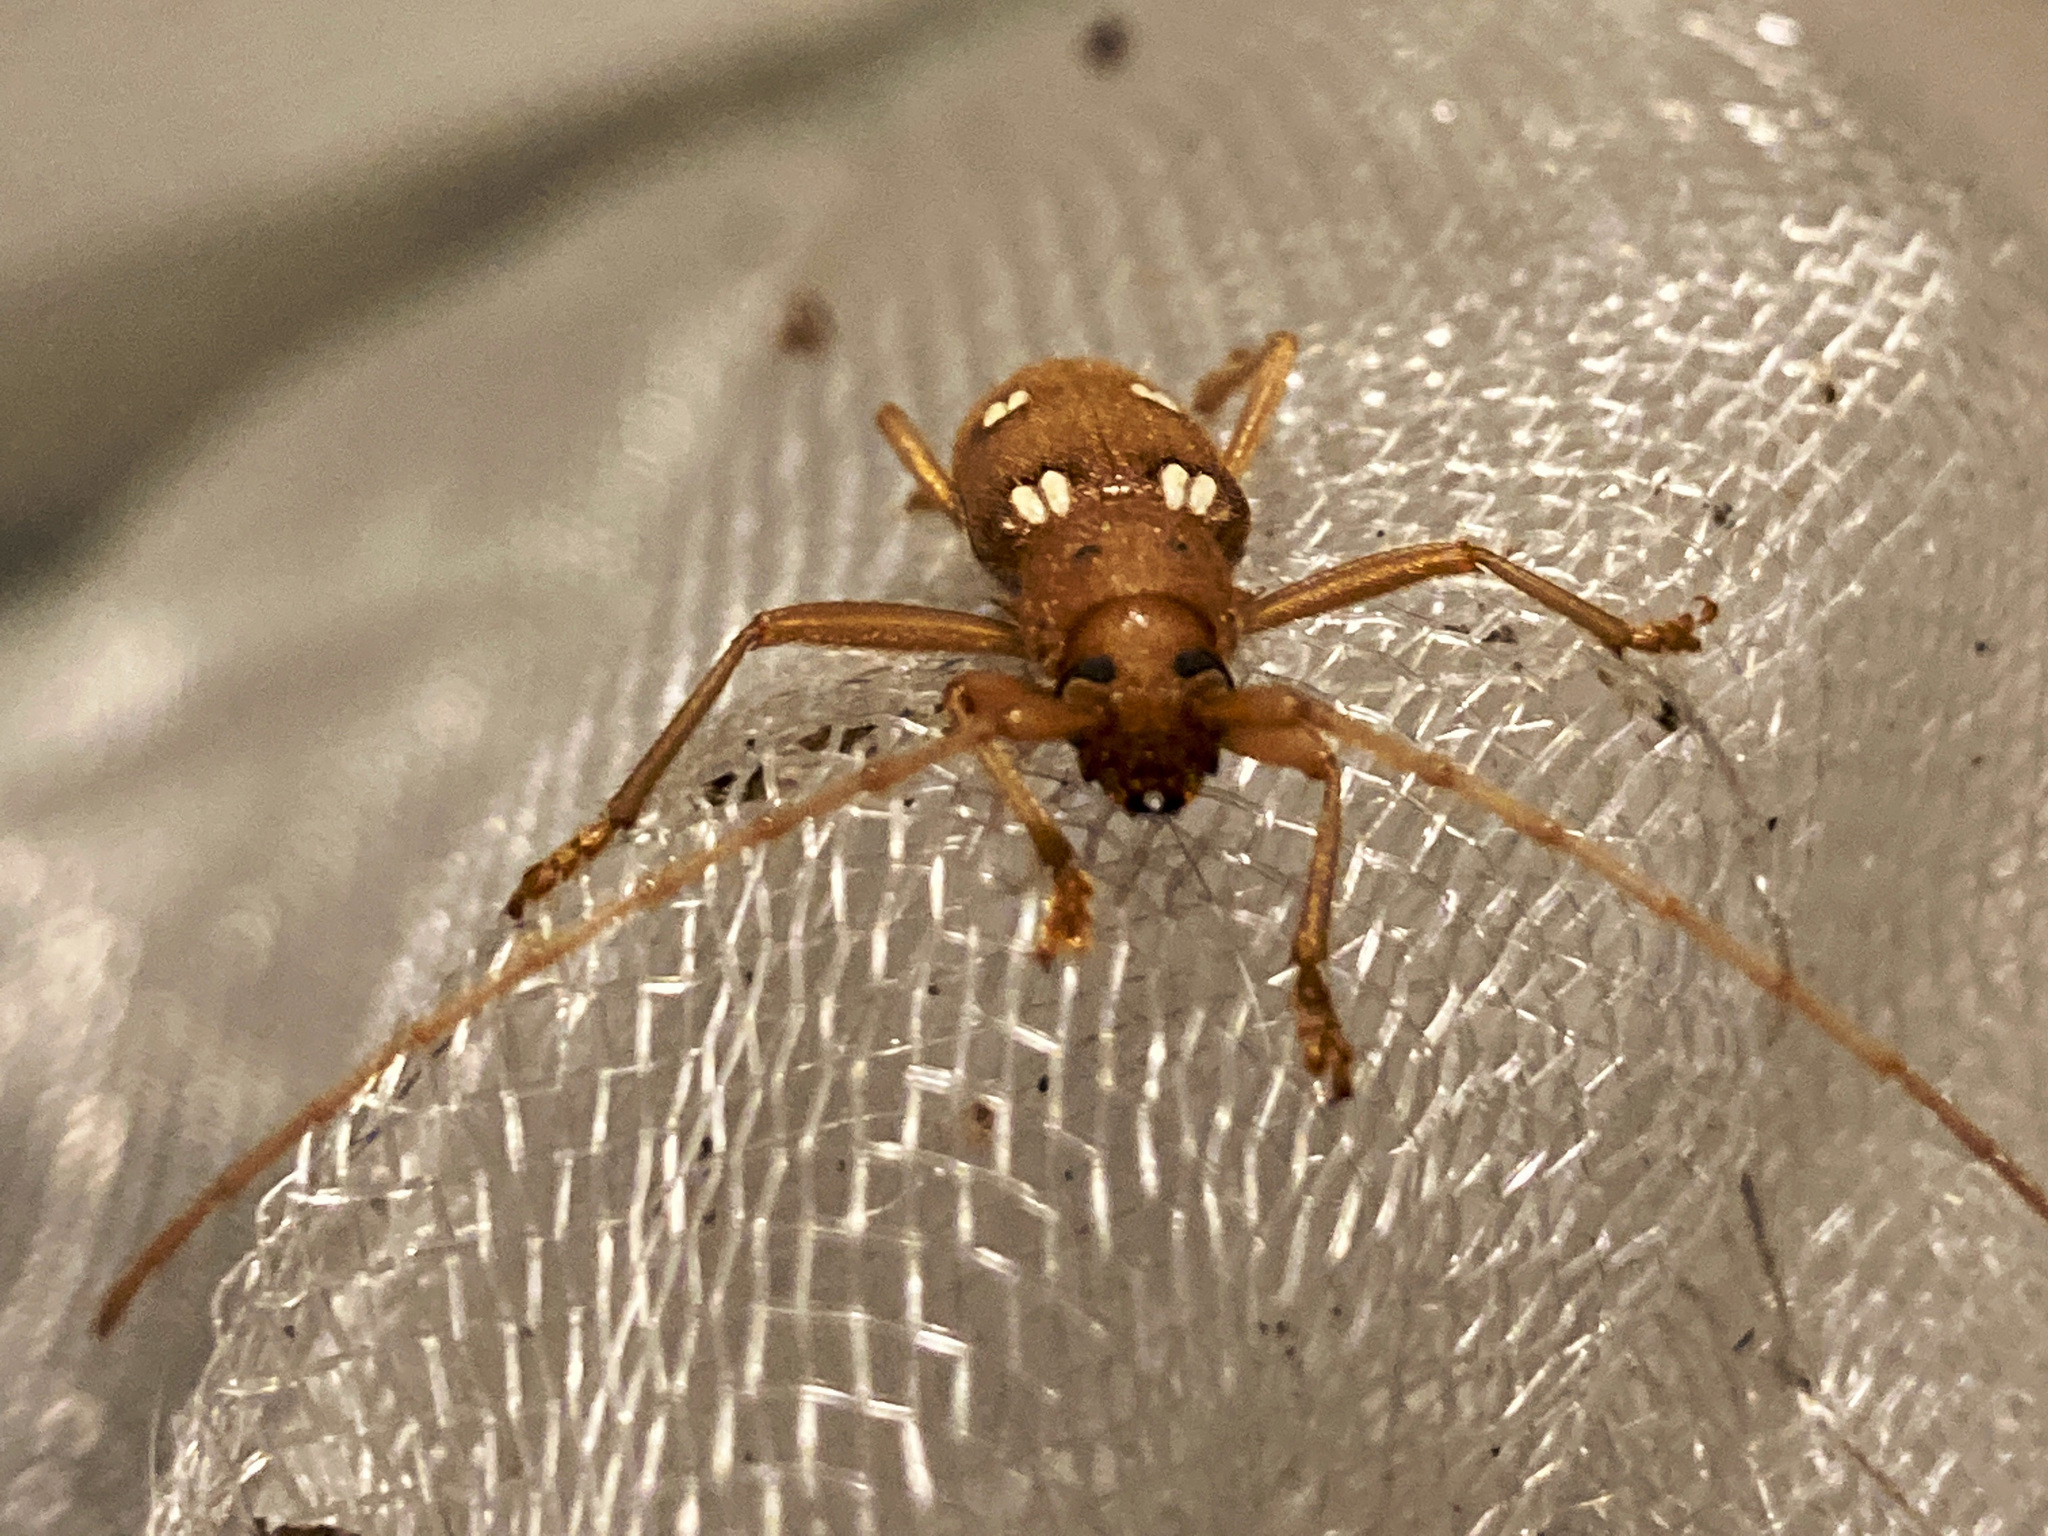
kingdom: Animalia
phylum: Arthropoda
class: Insecta
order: Coleoptera
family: Cerambycidae
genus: Eburia
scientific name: Eburia quadrigeminata
